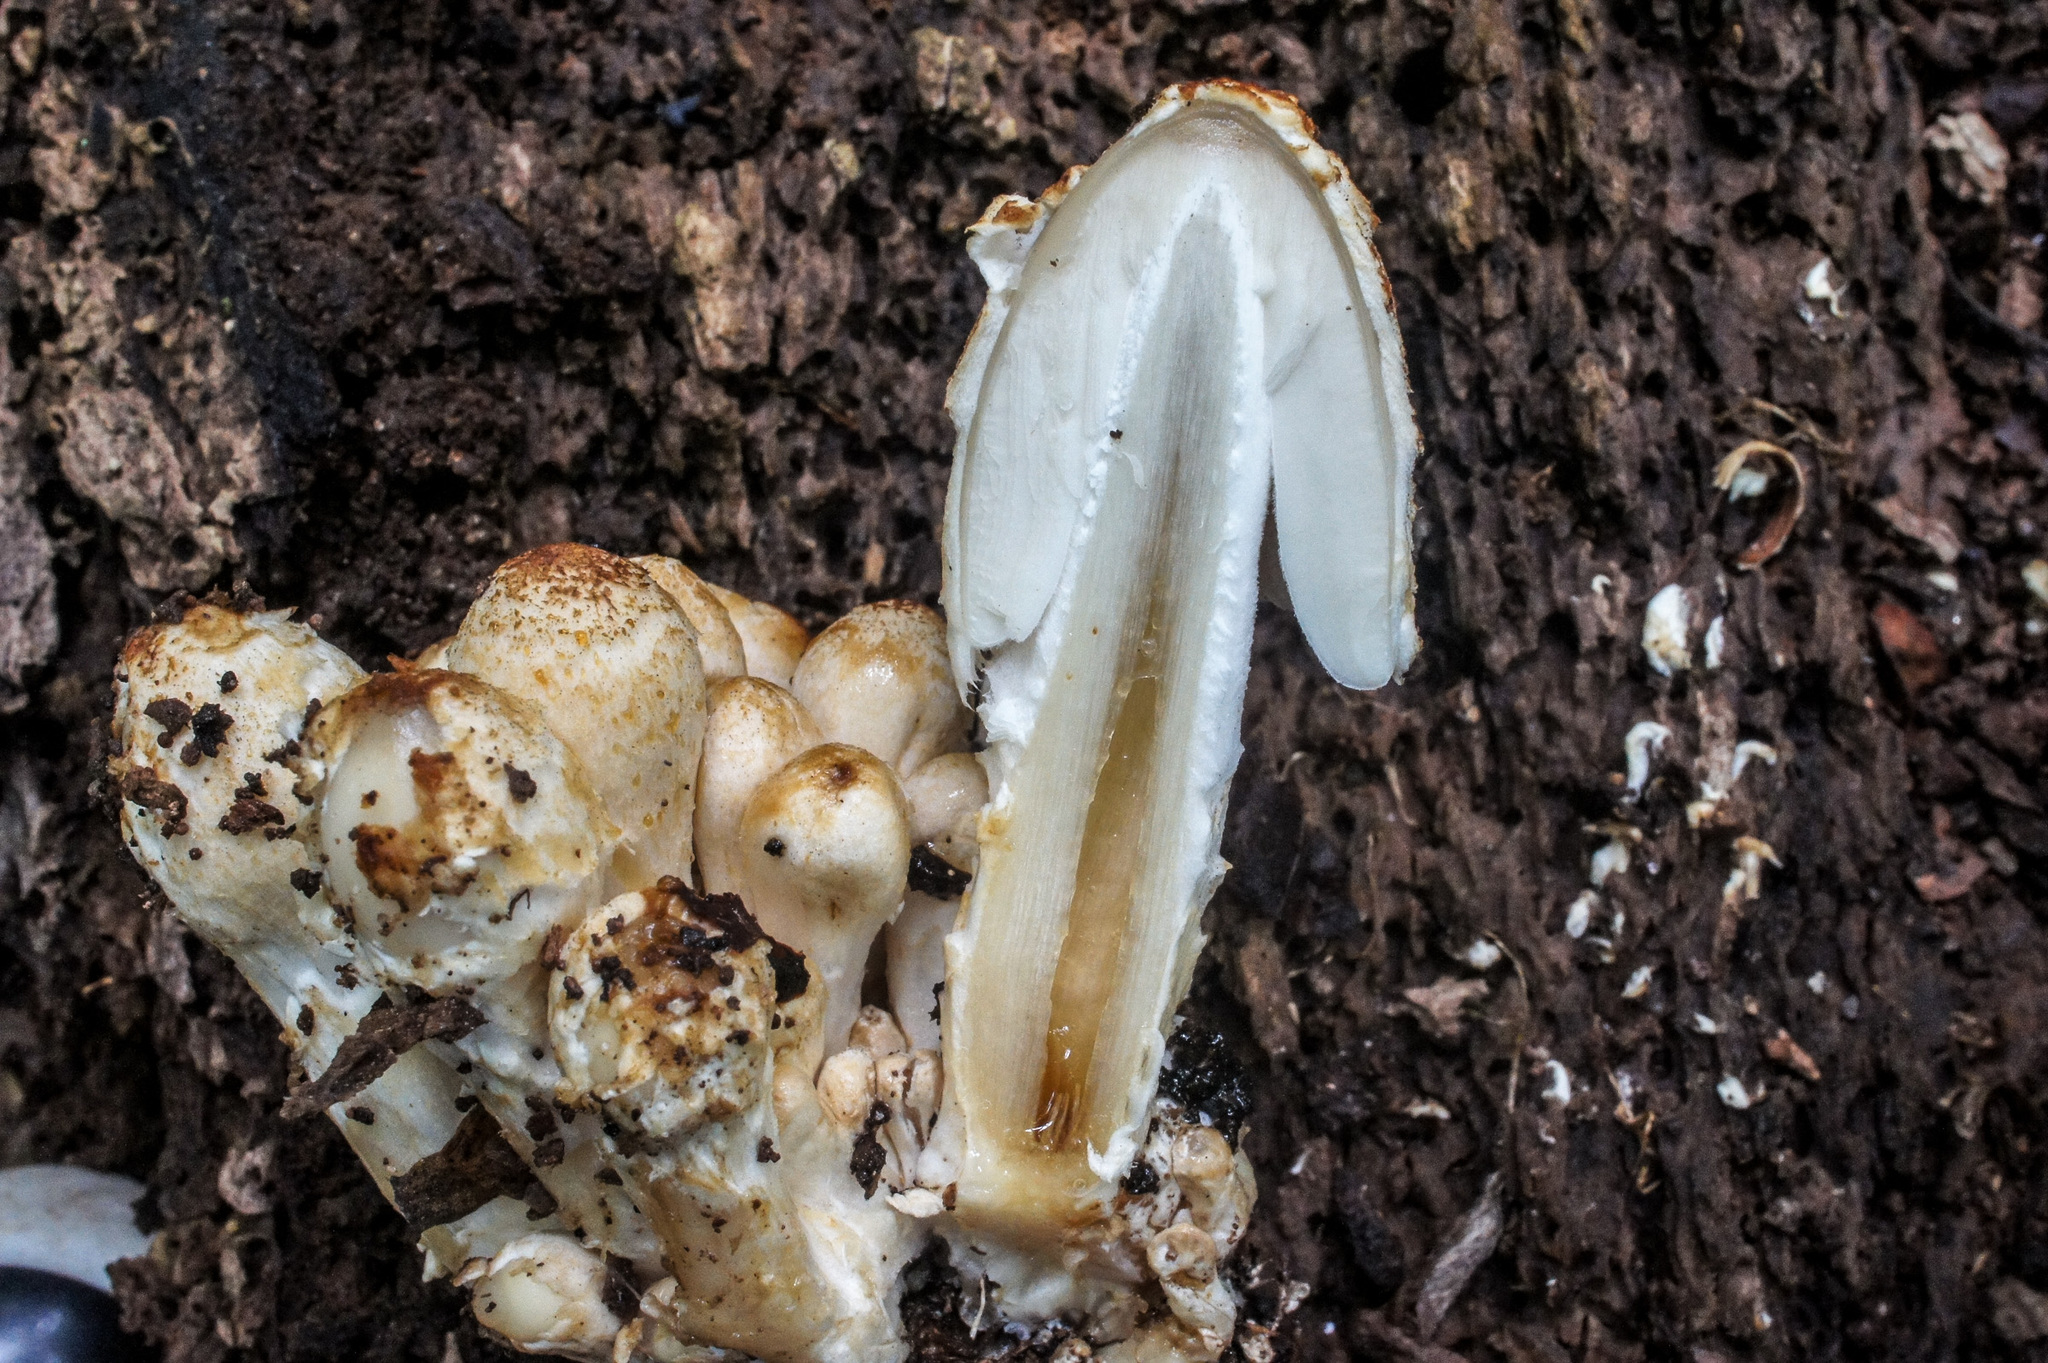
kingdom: Fungi
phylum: Basidiomycota
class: Agaricomycetes
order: Agaricales
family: Psathyrellaceae
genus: Coprinopsis
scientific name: Coprinopsis variegata
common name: Scaly ink cap
